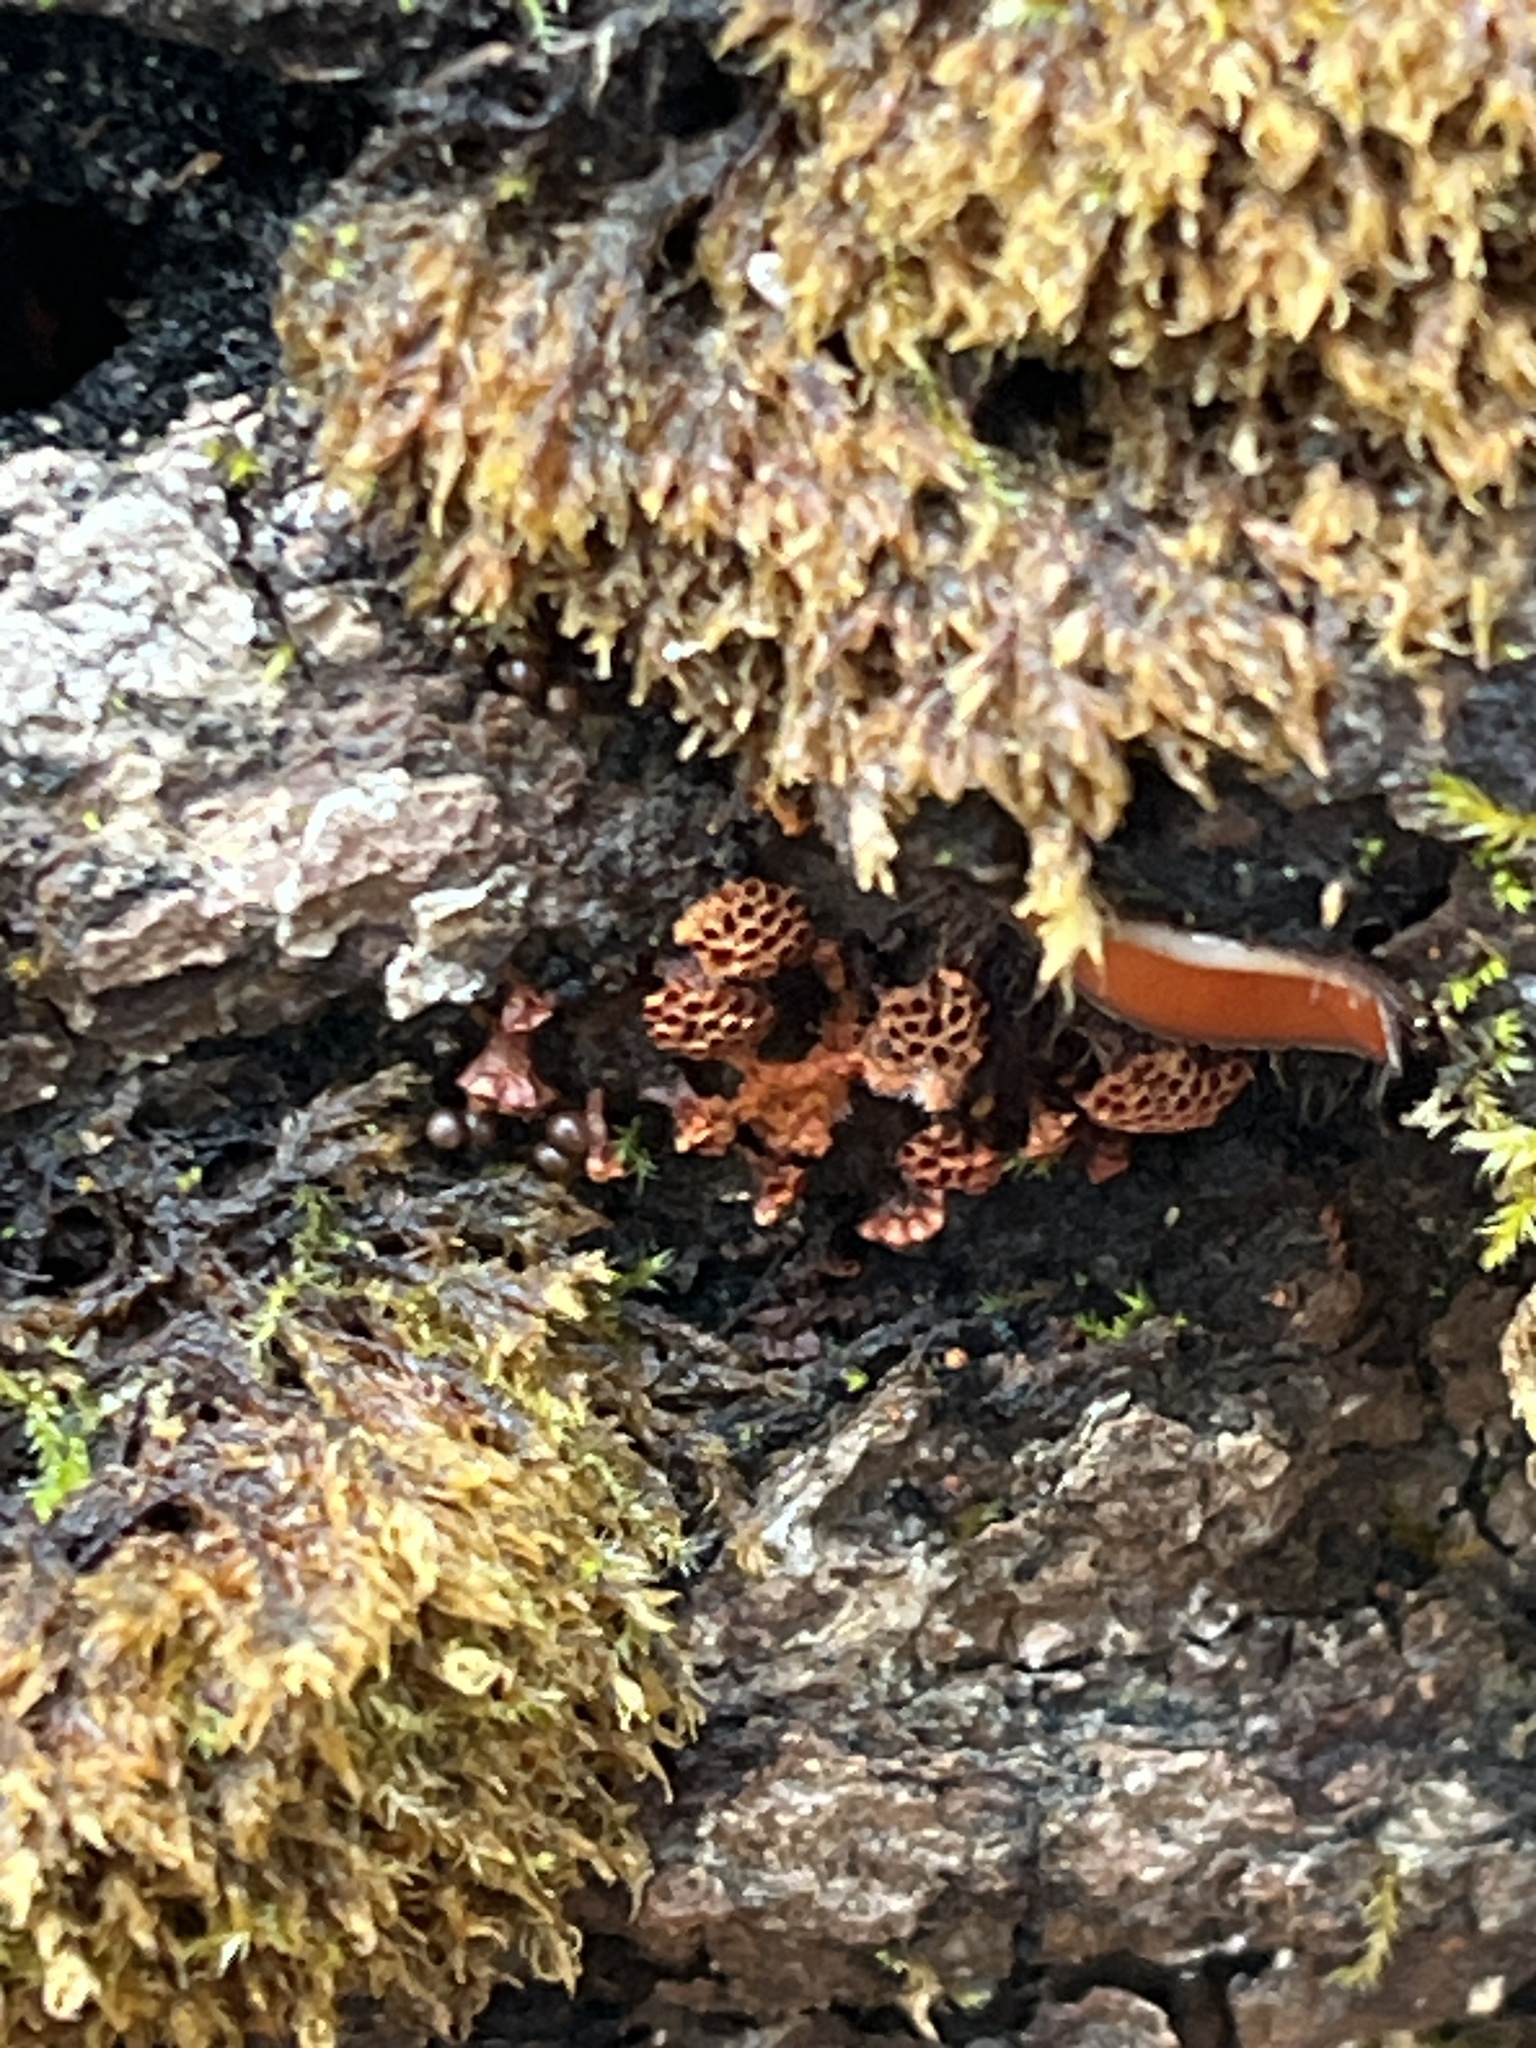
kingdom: Protozoa
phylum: Mycetozoa
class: Myxomycetes
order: Trichiales
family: Trichiaceae
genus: Metatrichia
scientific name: Metatrichia vesparia
